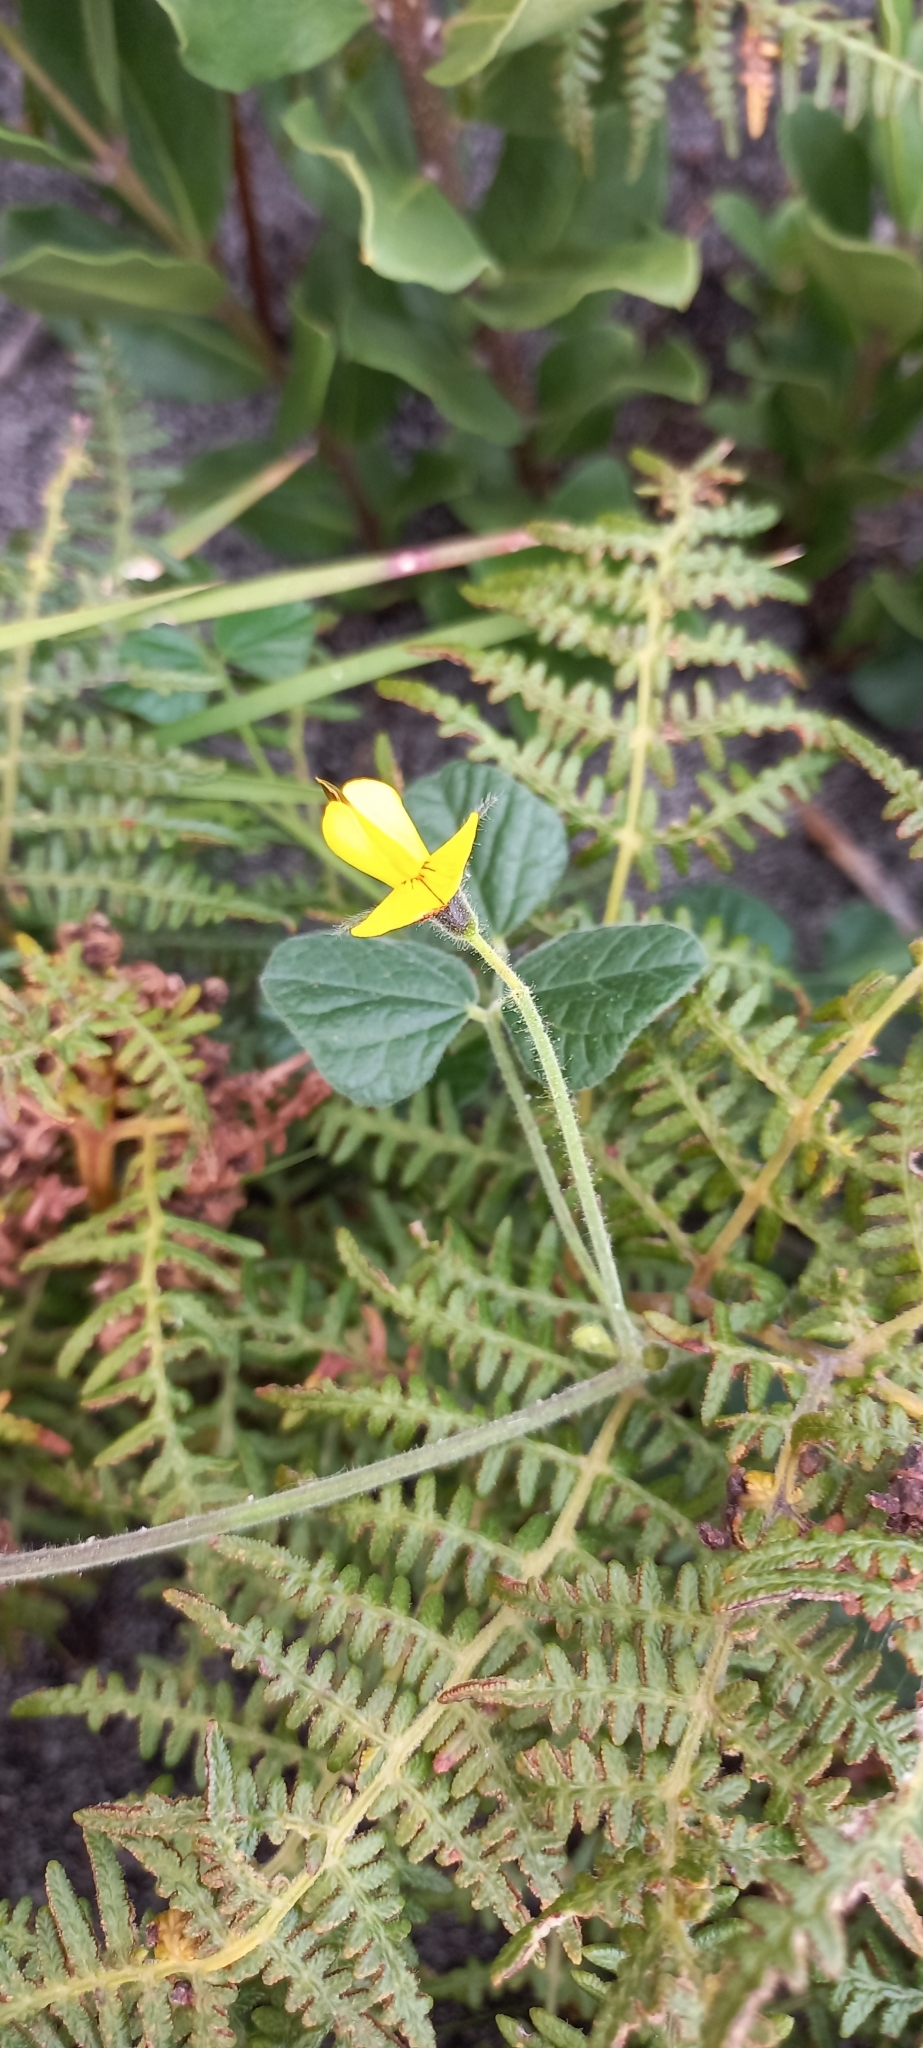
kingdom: Plantae
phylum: Tracheophyta
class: Magnoliopsida
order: Fabales
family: Fabaceae
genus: Bolusafra
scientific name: Bolusafra bituminosa
